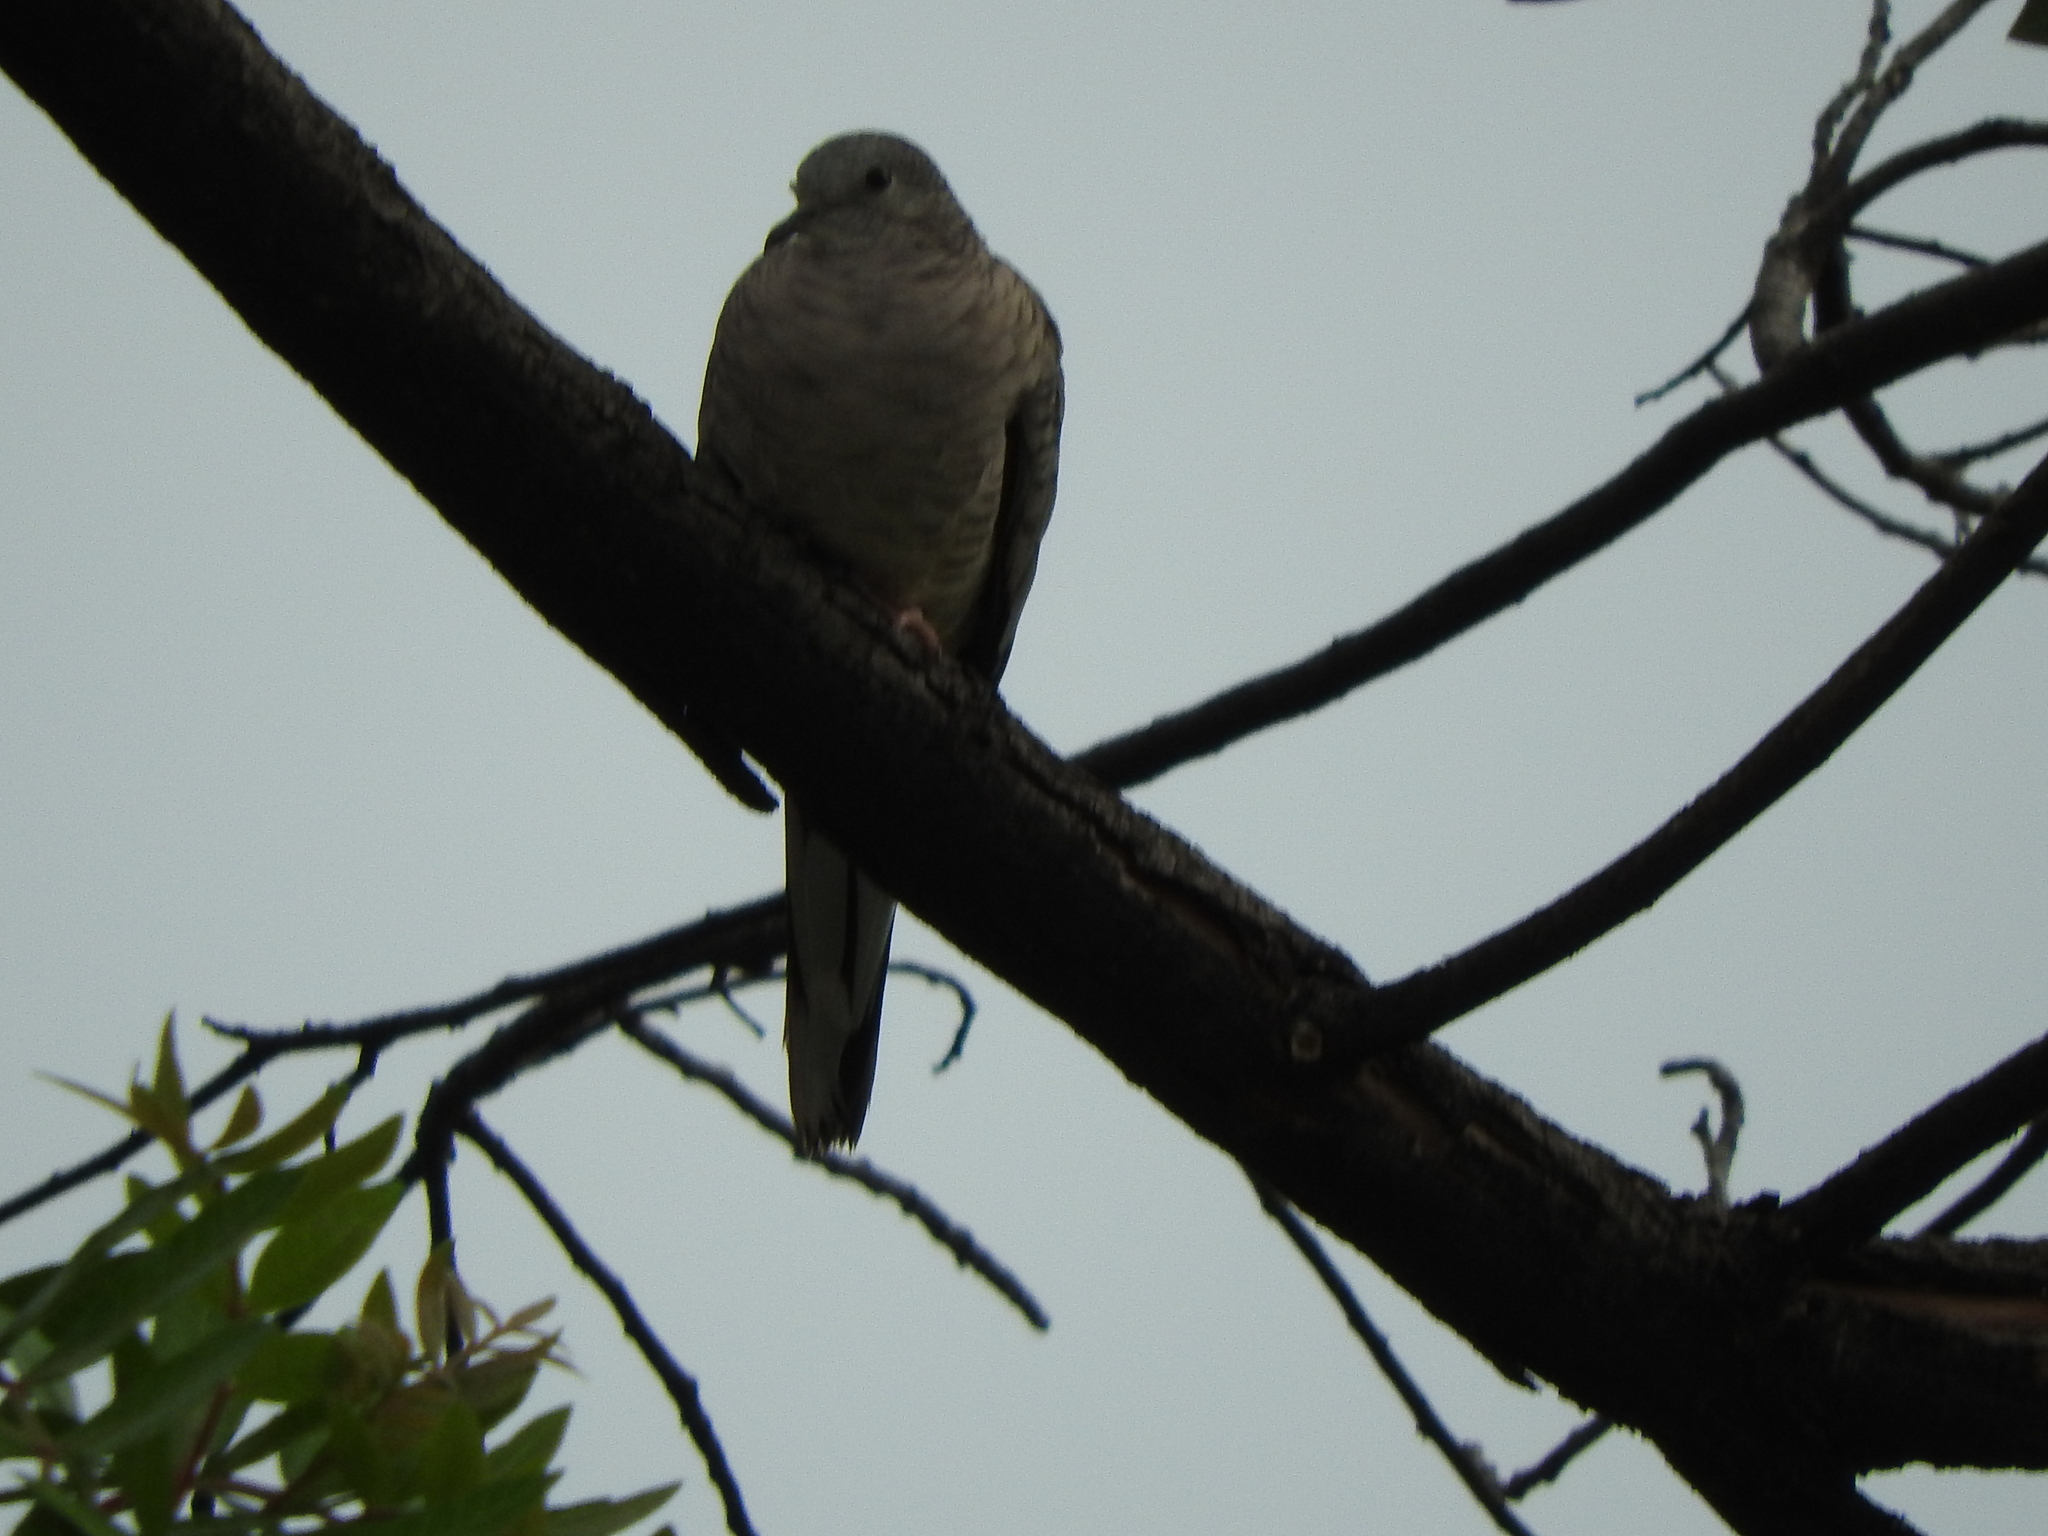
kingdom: Animalia
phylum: Chordata
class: Aves
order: Columbiformes
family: Columbidae
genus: Columbina
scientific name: Columbina inca
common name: Inca dove
